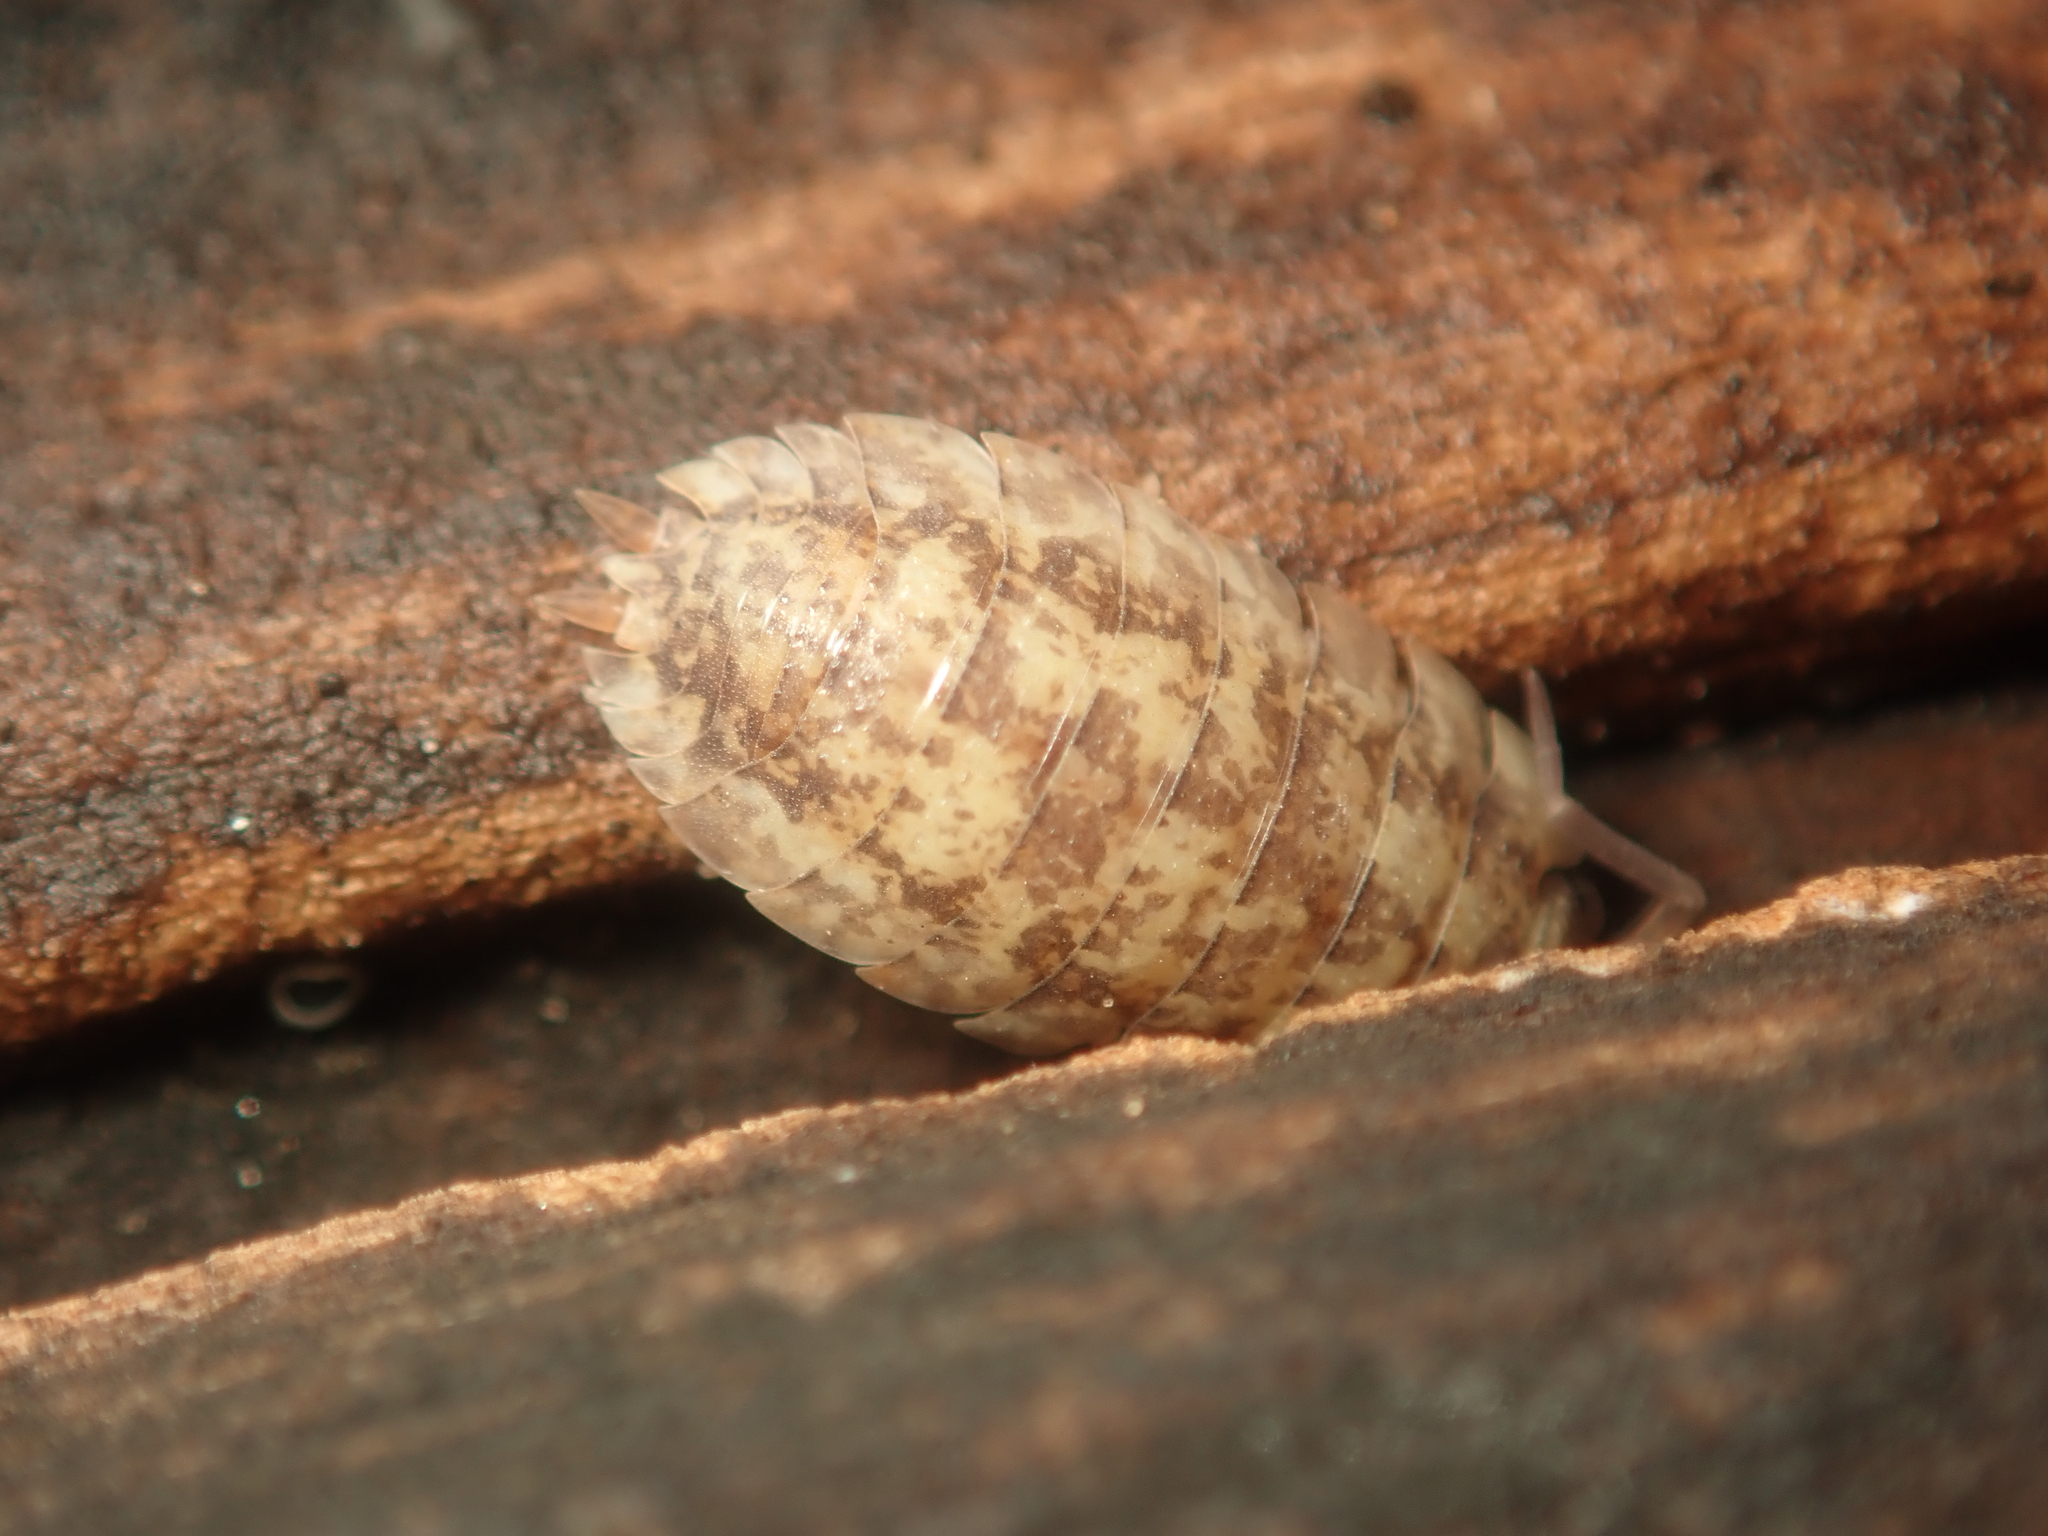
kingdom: Animalia
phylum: Arthropoda
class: Malacostraca
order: Isopoda
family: Porcellionidae
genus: Porcellio
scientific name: Porcellio scaber
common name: Common rough woodlouse
